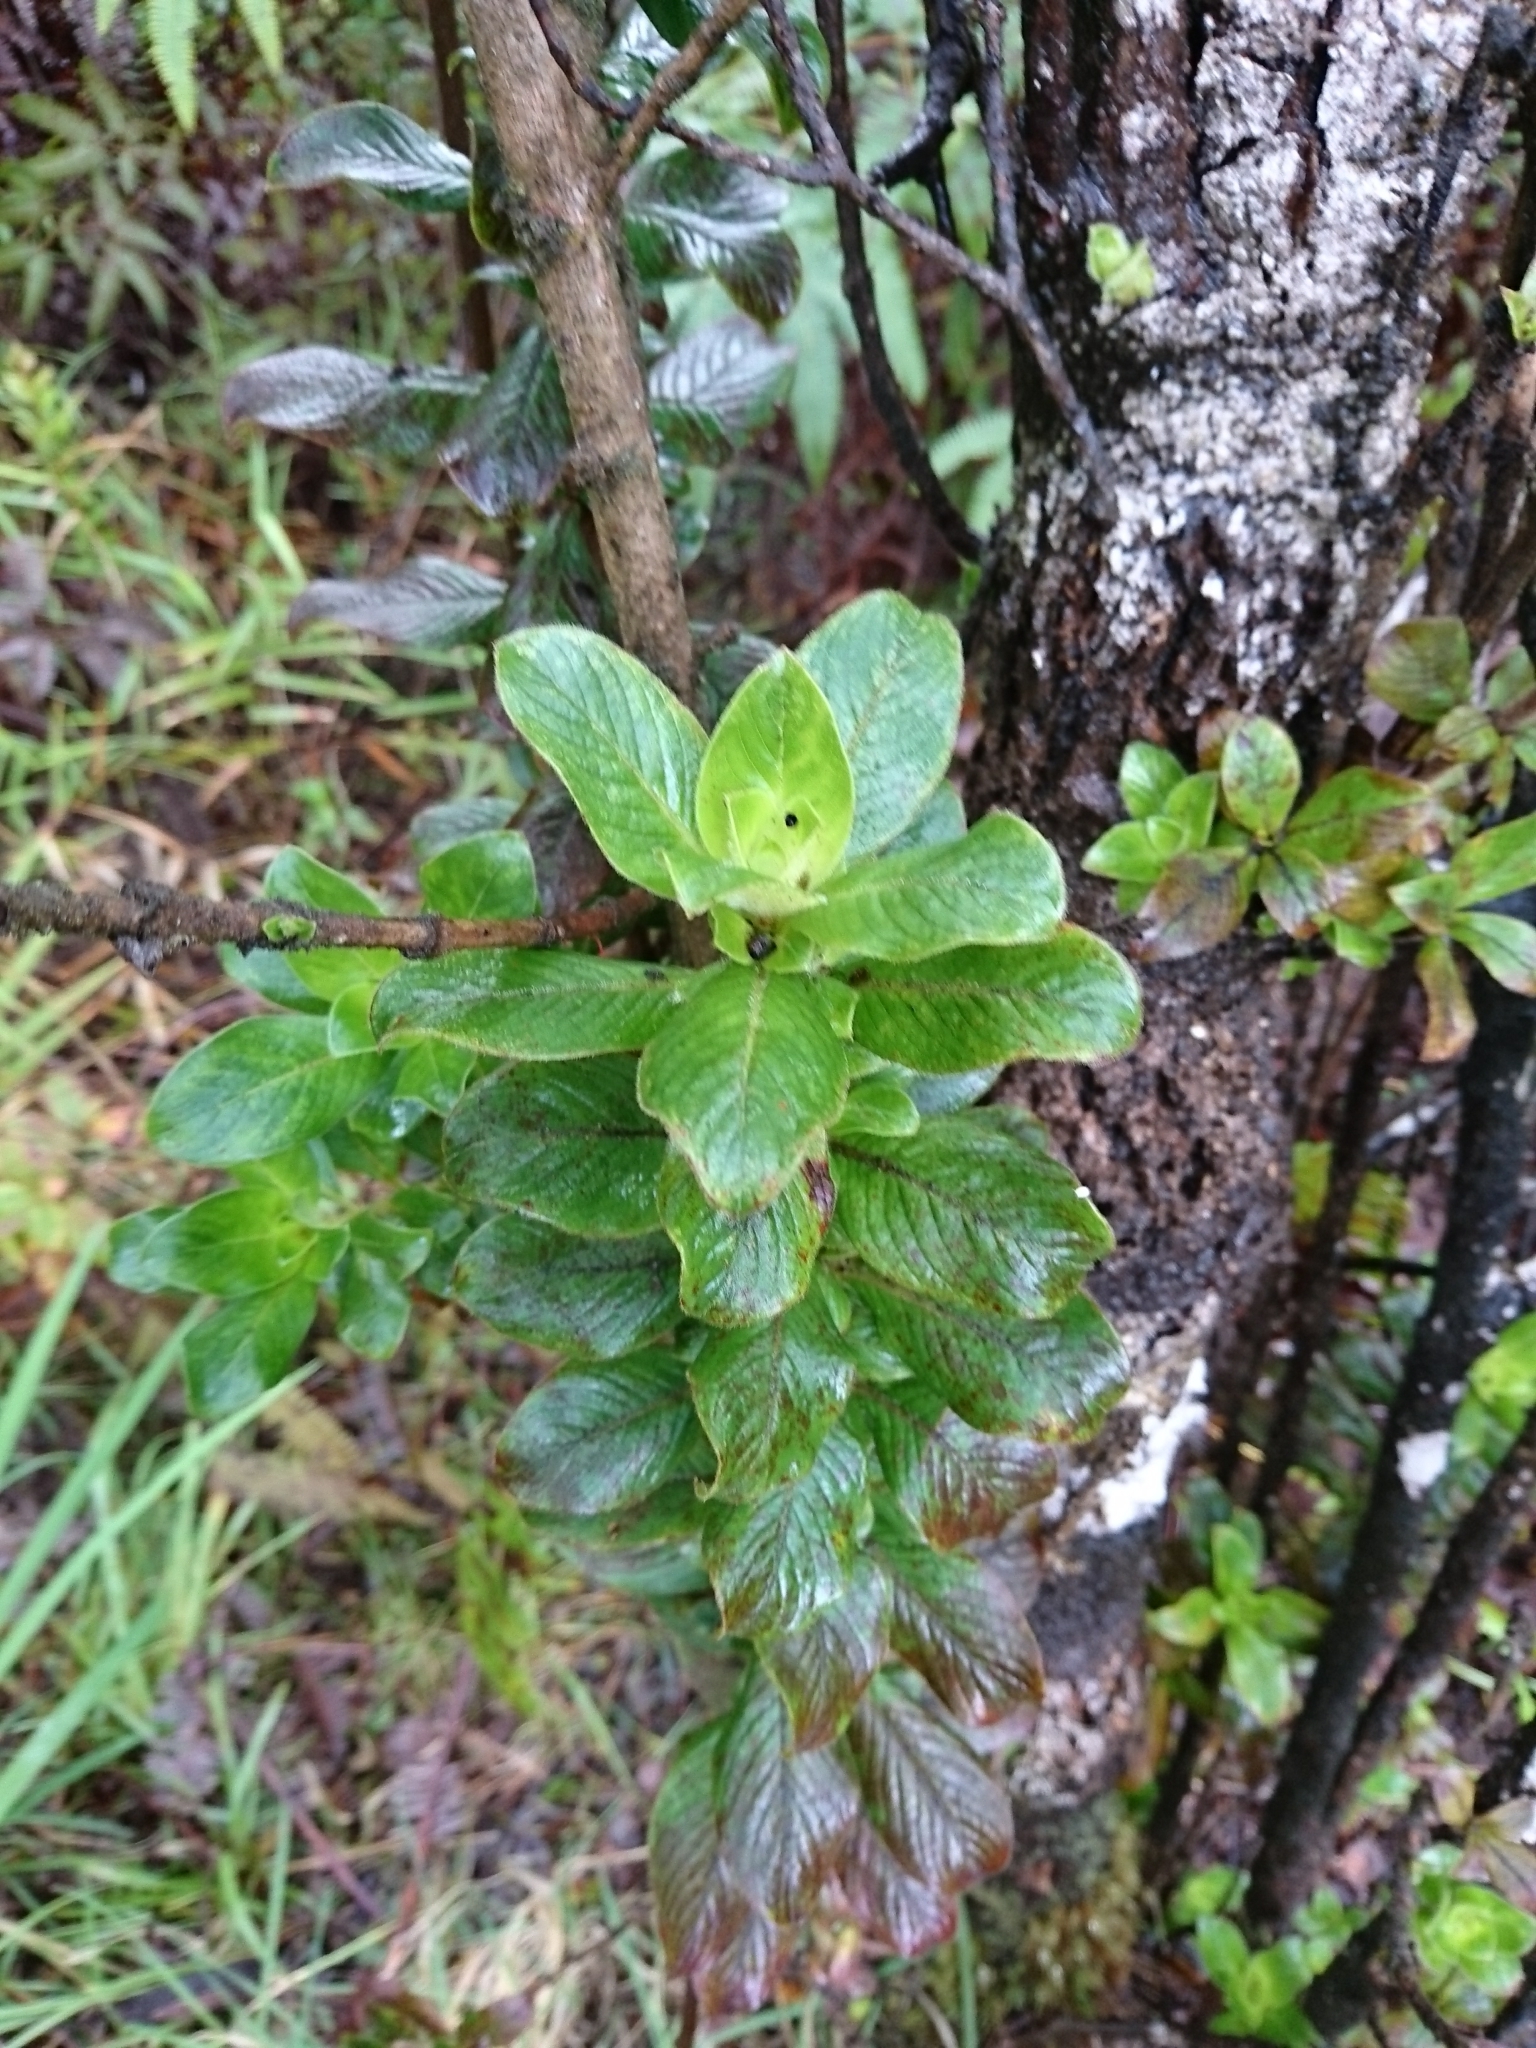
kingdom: Plantae
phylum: Tracheophyta
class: Magnoliopsida
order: Gentianales
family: Rubiaceae
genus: Coprosma
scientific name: Coprosma ochracea
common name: Maui mirrorplant
